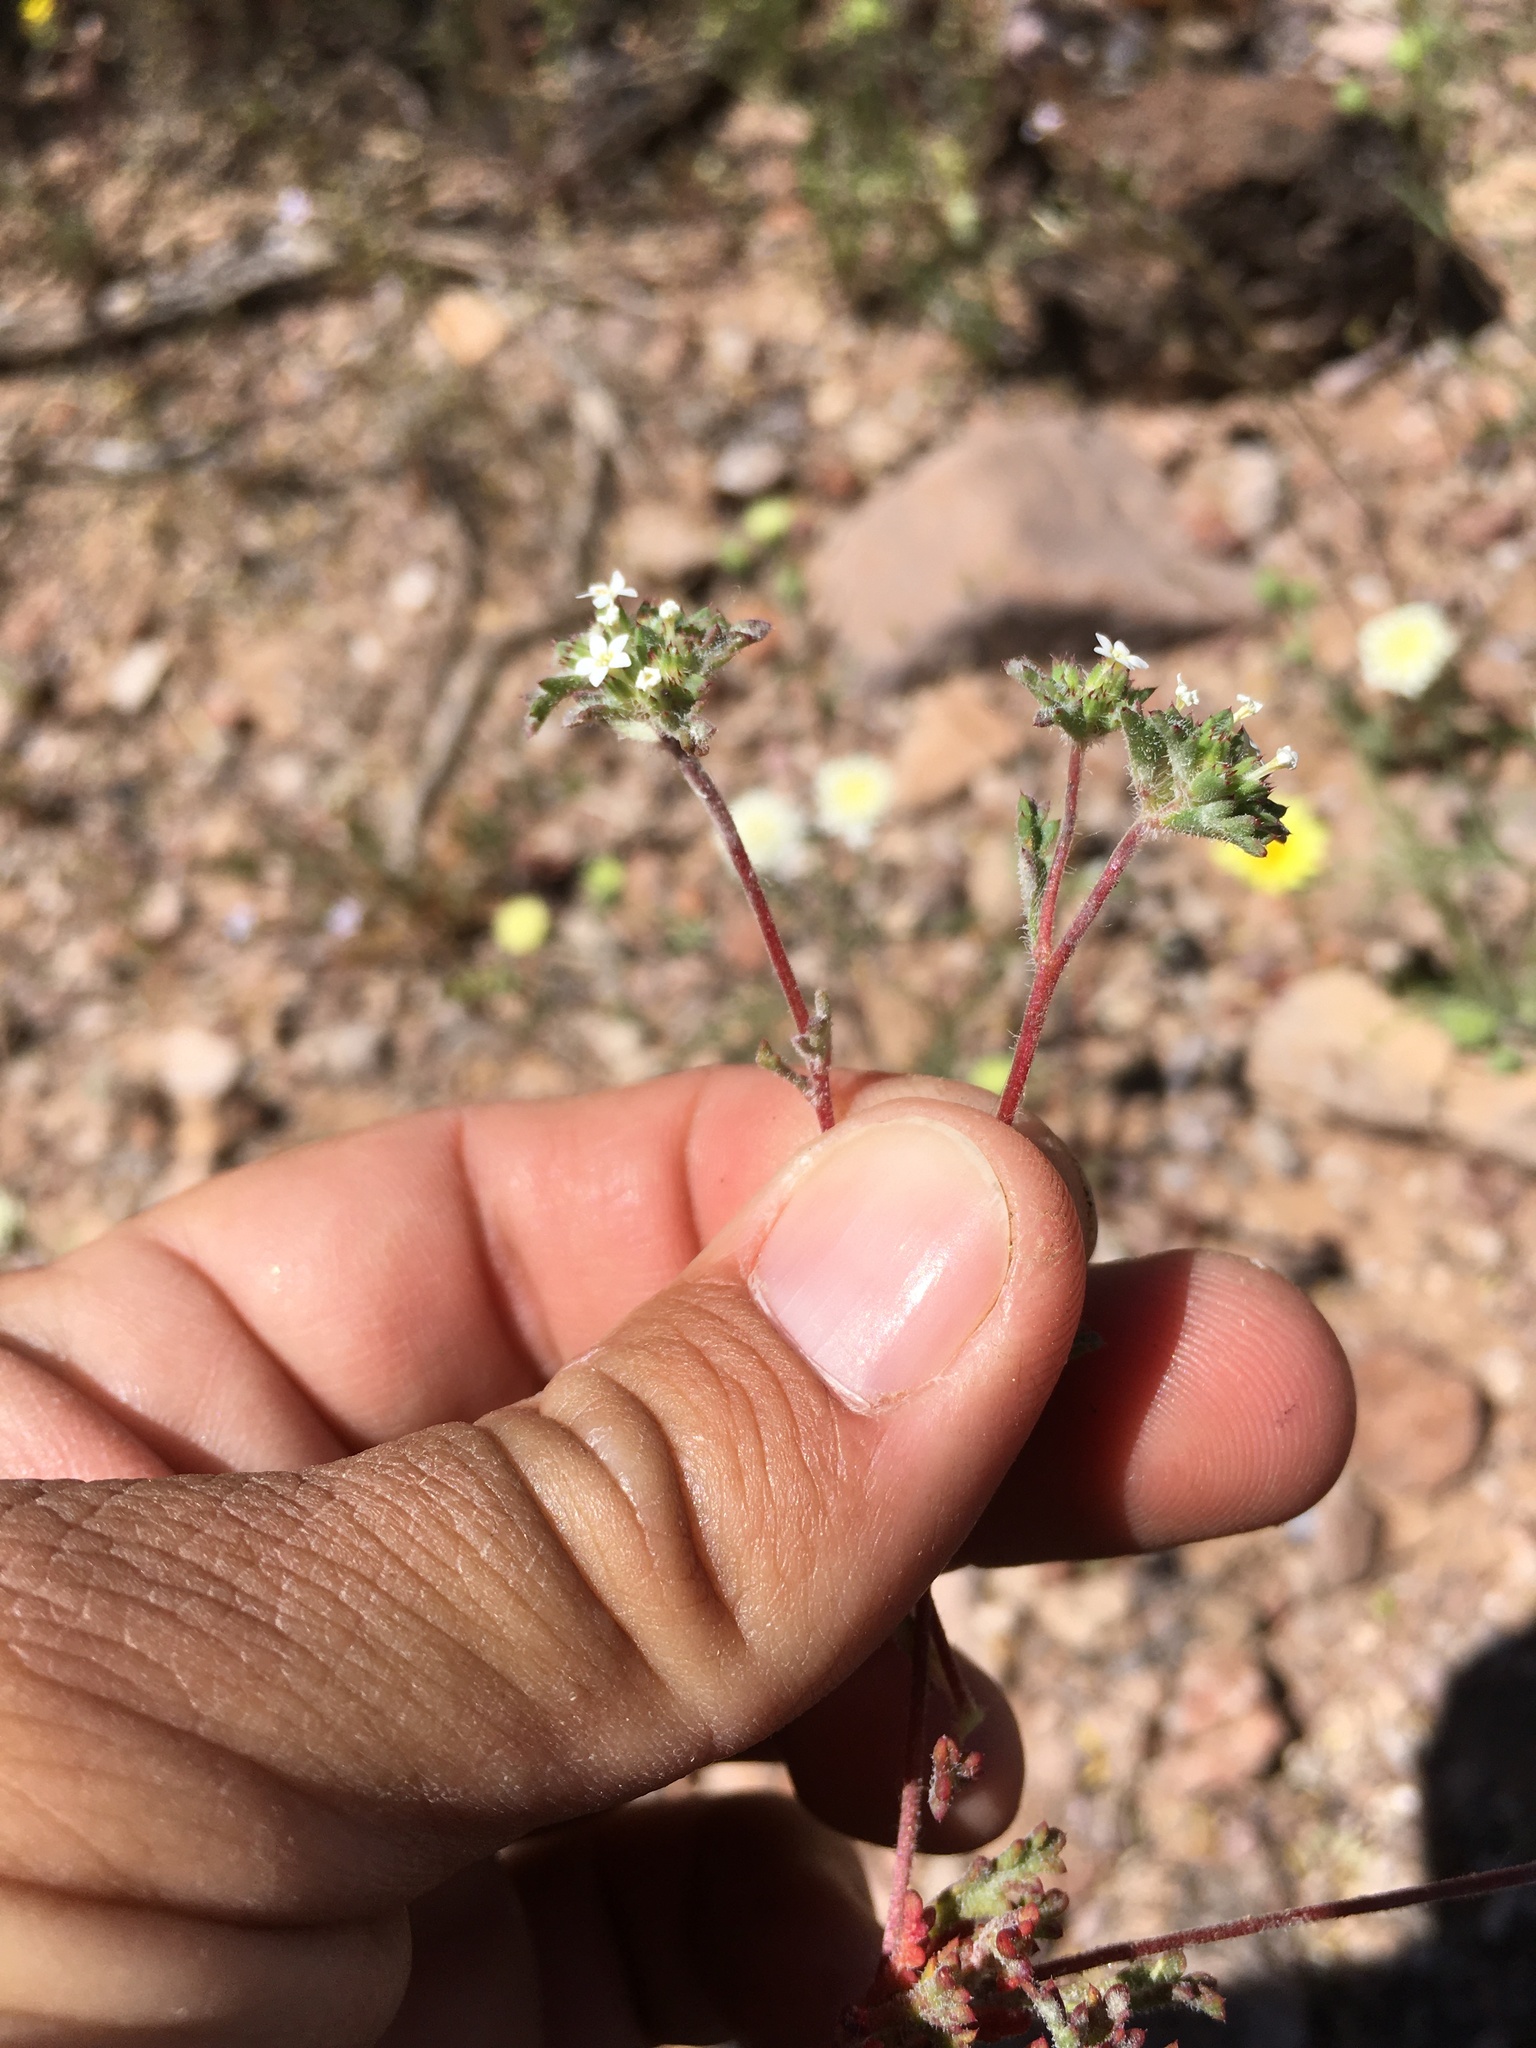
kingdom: Plantae
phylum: Tracheophyta
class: Magnoliopsida
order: Ericales
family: Polemoniaceae
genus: Ipomopsis
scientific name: Ipomopsis polycladon
